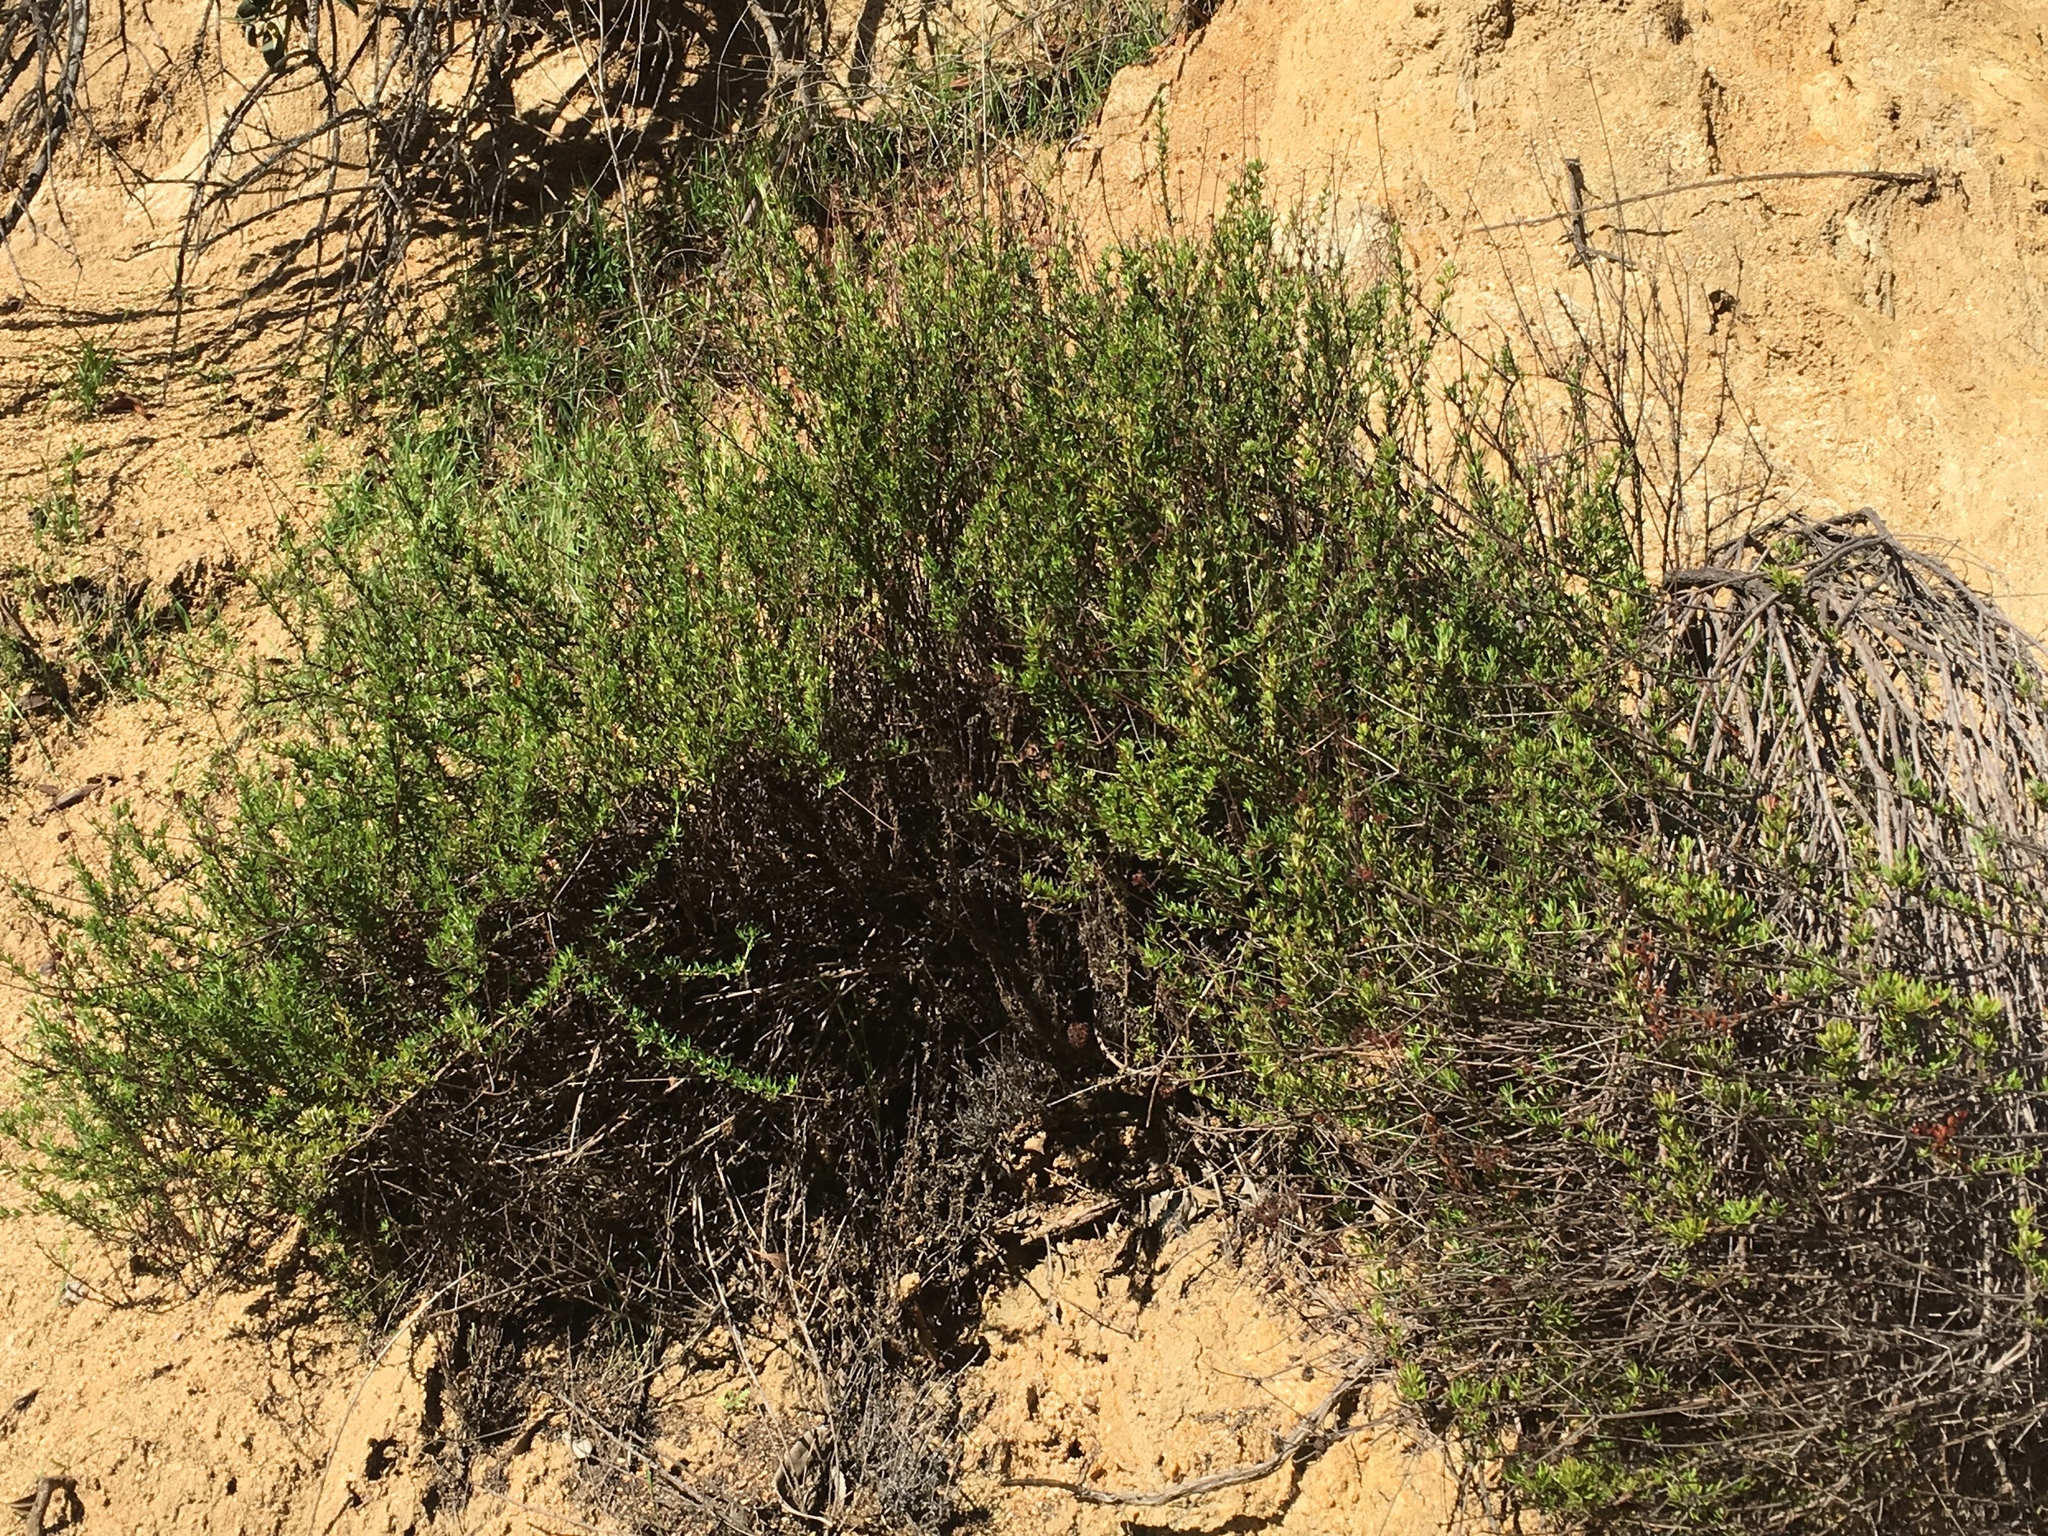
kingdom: Plantae
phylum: Tracheophyta
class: Magnoliopsida
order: Caryophyllales
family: Polygonaceae
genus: Eriogonum
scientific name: Eriogonum fasciculatum
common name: California wild buckwheat
